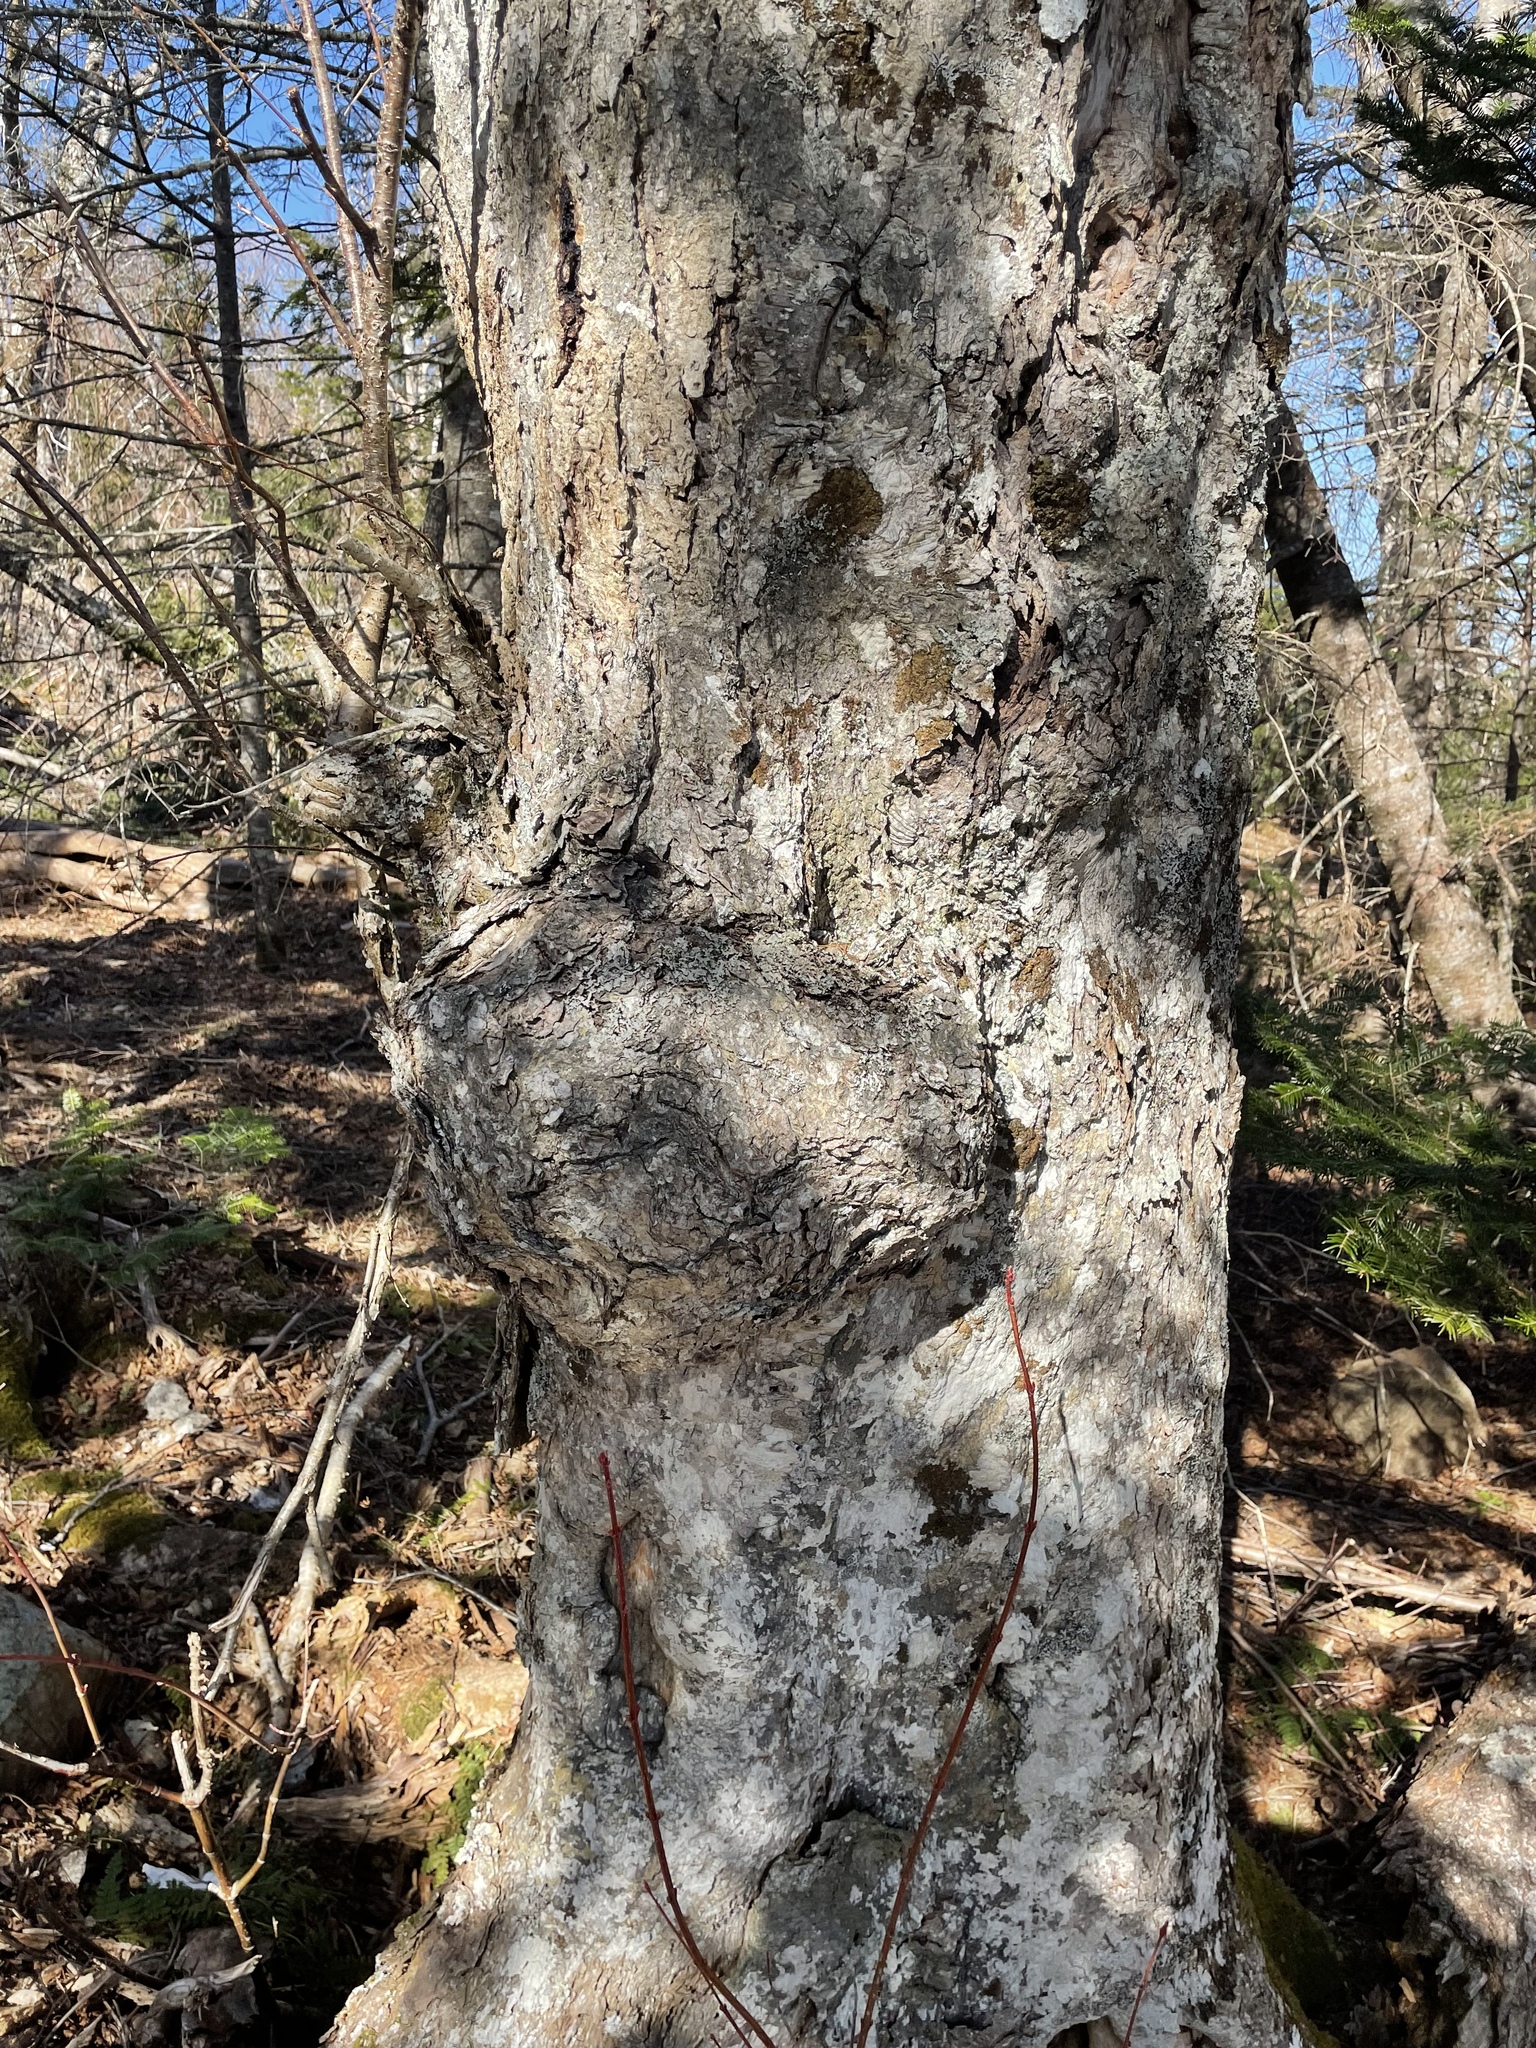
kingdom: Bacteria
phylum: Proteobacteria
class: Alphaproteobacteria
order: Rhizobiales
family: Rhizobiaceae
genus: Rhizobium
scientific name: Rhizobium Agrobacterium radiobacter
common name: Bacterial crown gall
